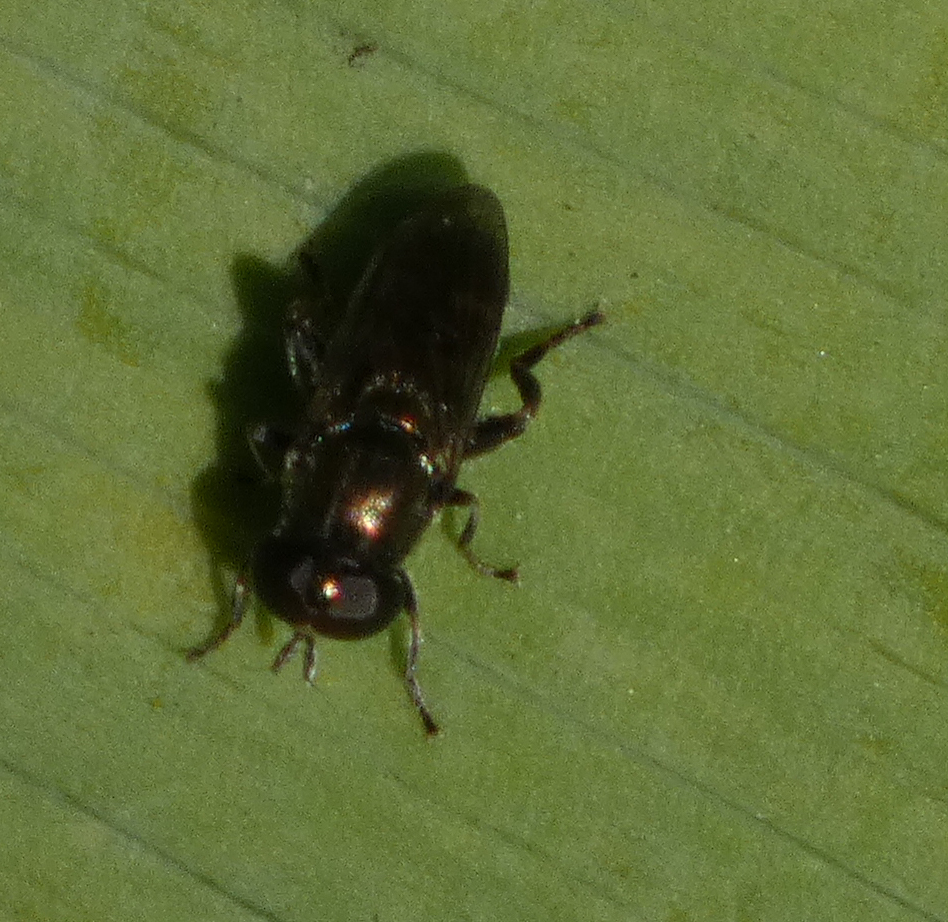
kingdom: Animalia
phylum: Arthropoda
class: Insecta
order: Diptera
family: Syrphidae
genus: Eumerus
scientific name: Eumerus
